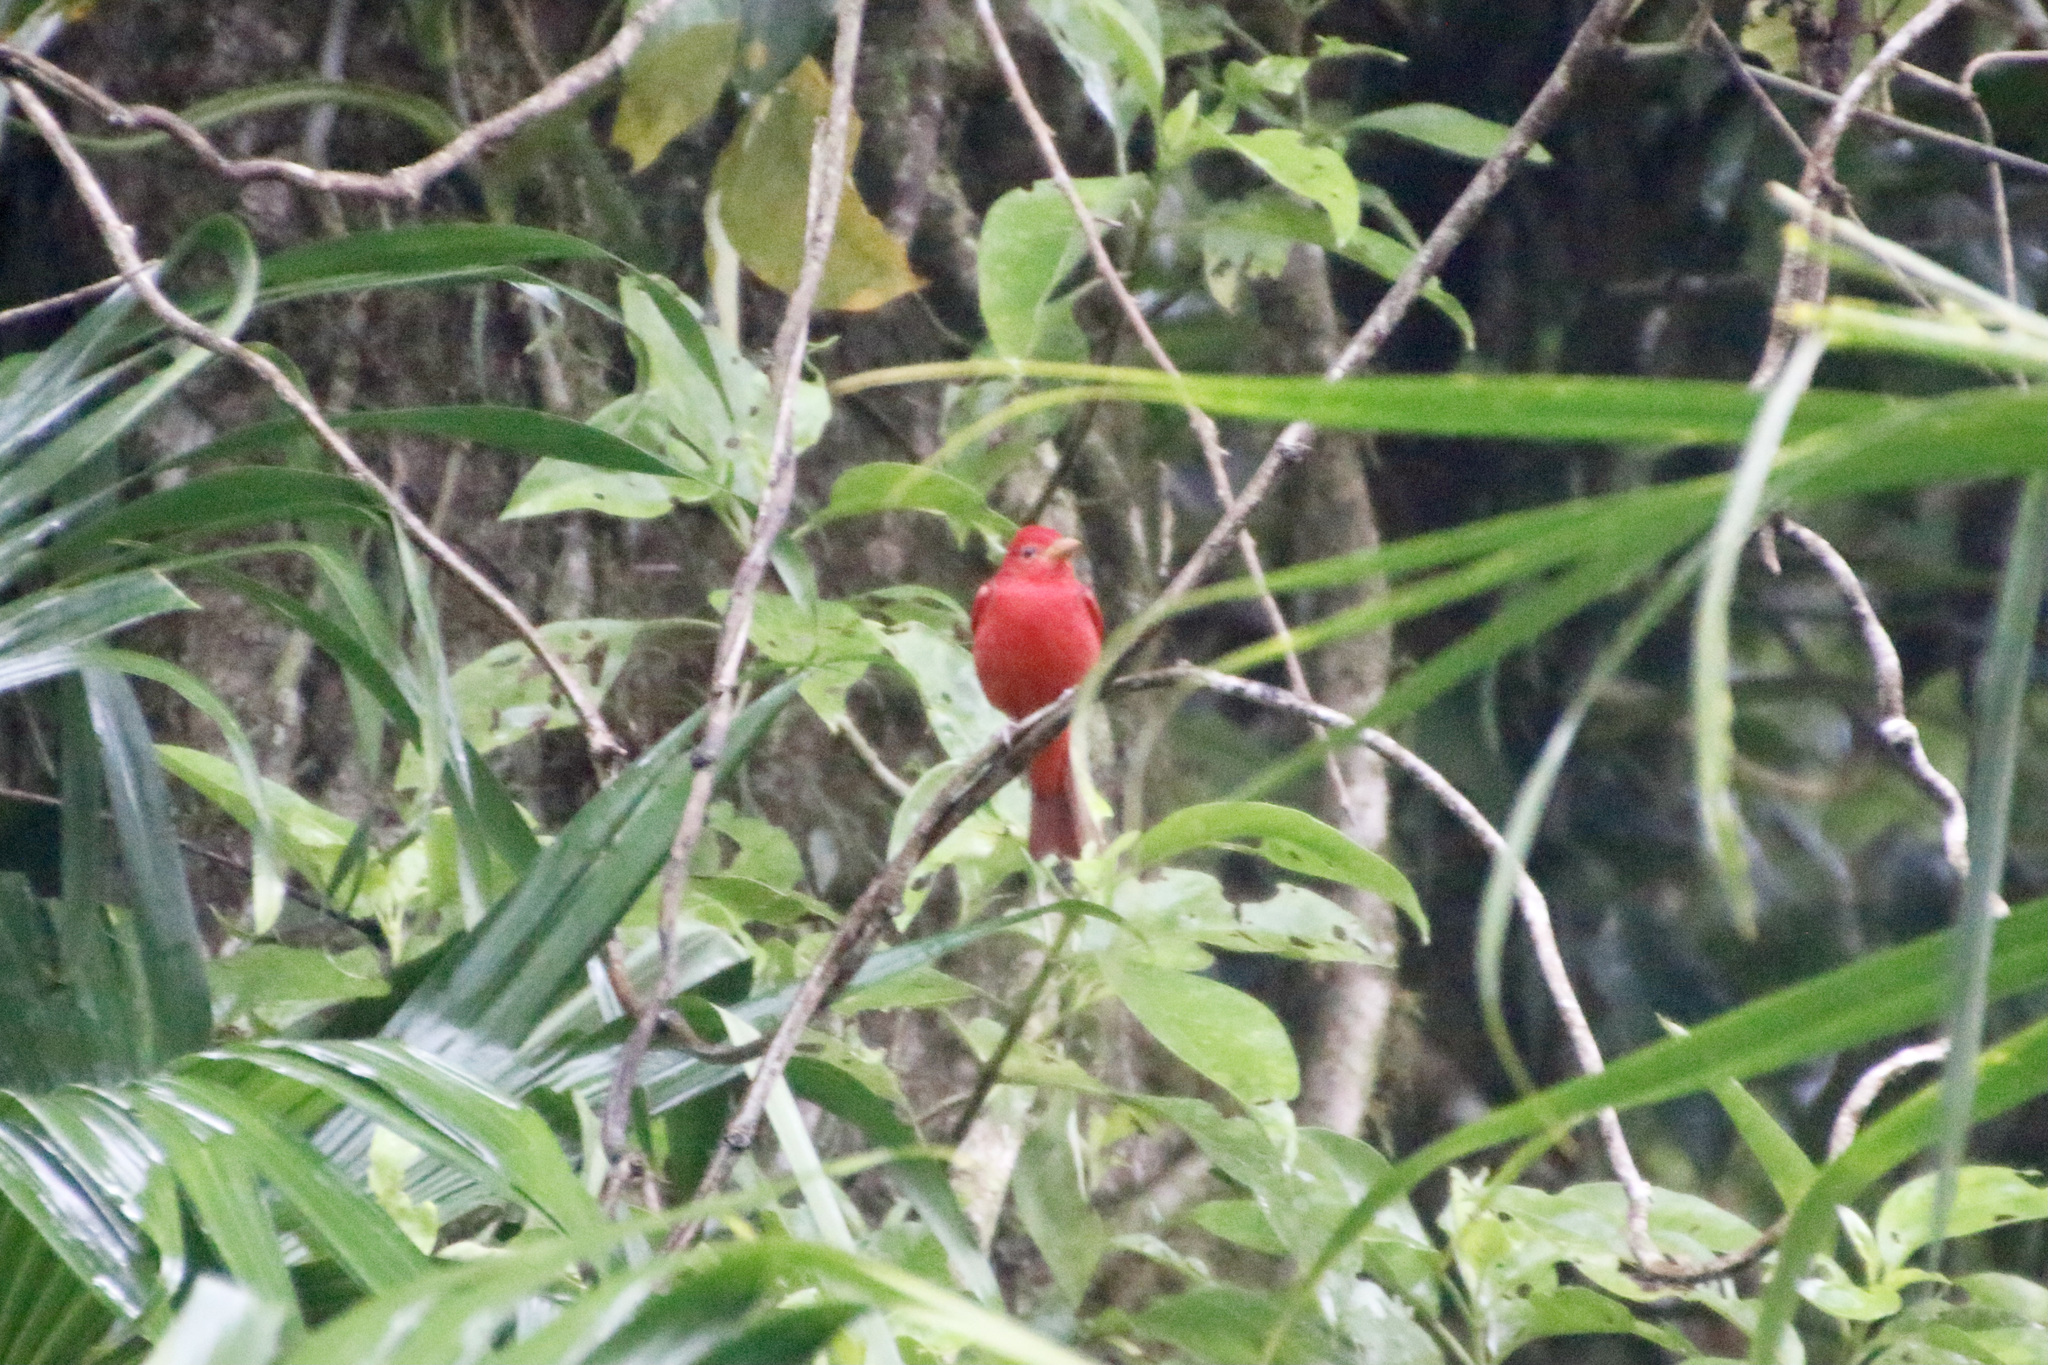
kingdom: Animalia
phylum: Chordata
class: Aves
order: Passeriformes
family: Cardinalidae
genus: Piranga
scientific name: Piranga rubra
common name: Summer tanager
